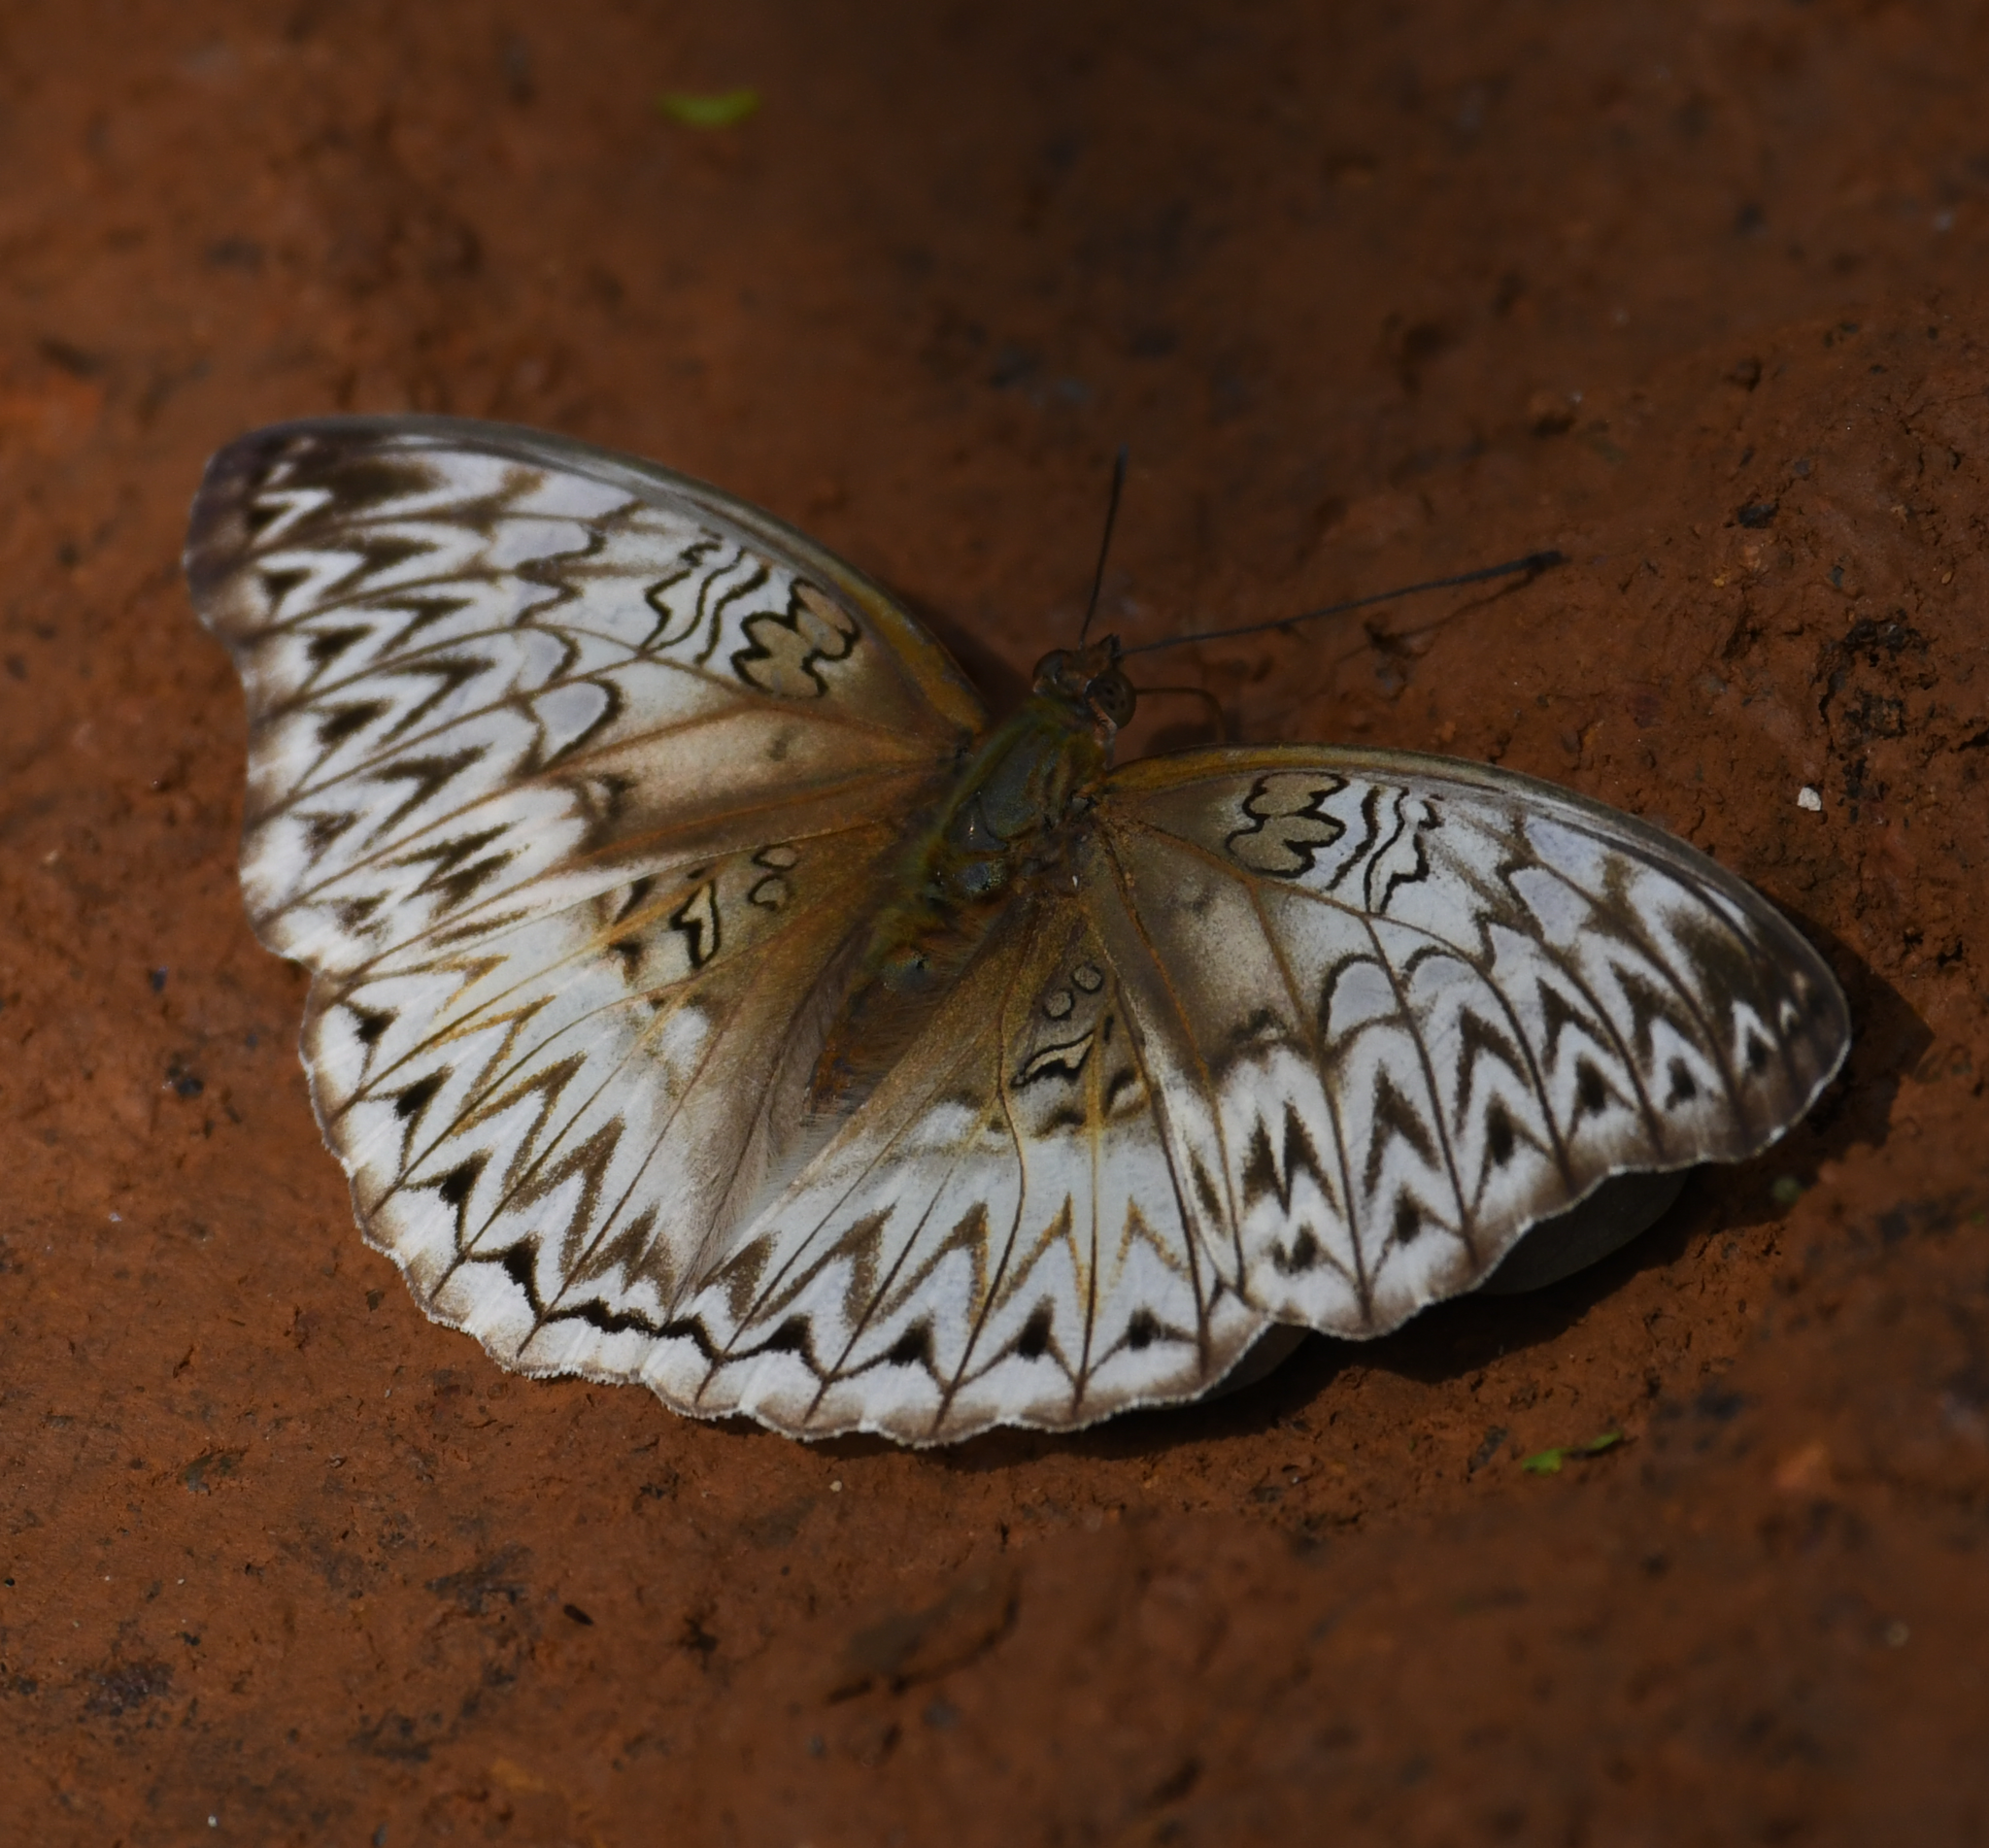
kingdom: Animalia
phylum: Arthropoda
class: Insecta
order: Lepidoptera
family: Nymphalidae
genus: Cymothoe
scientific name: Cymothoe sangaris
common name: Blood-red glider
